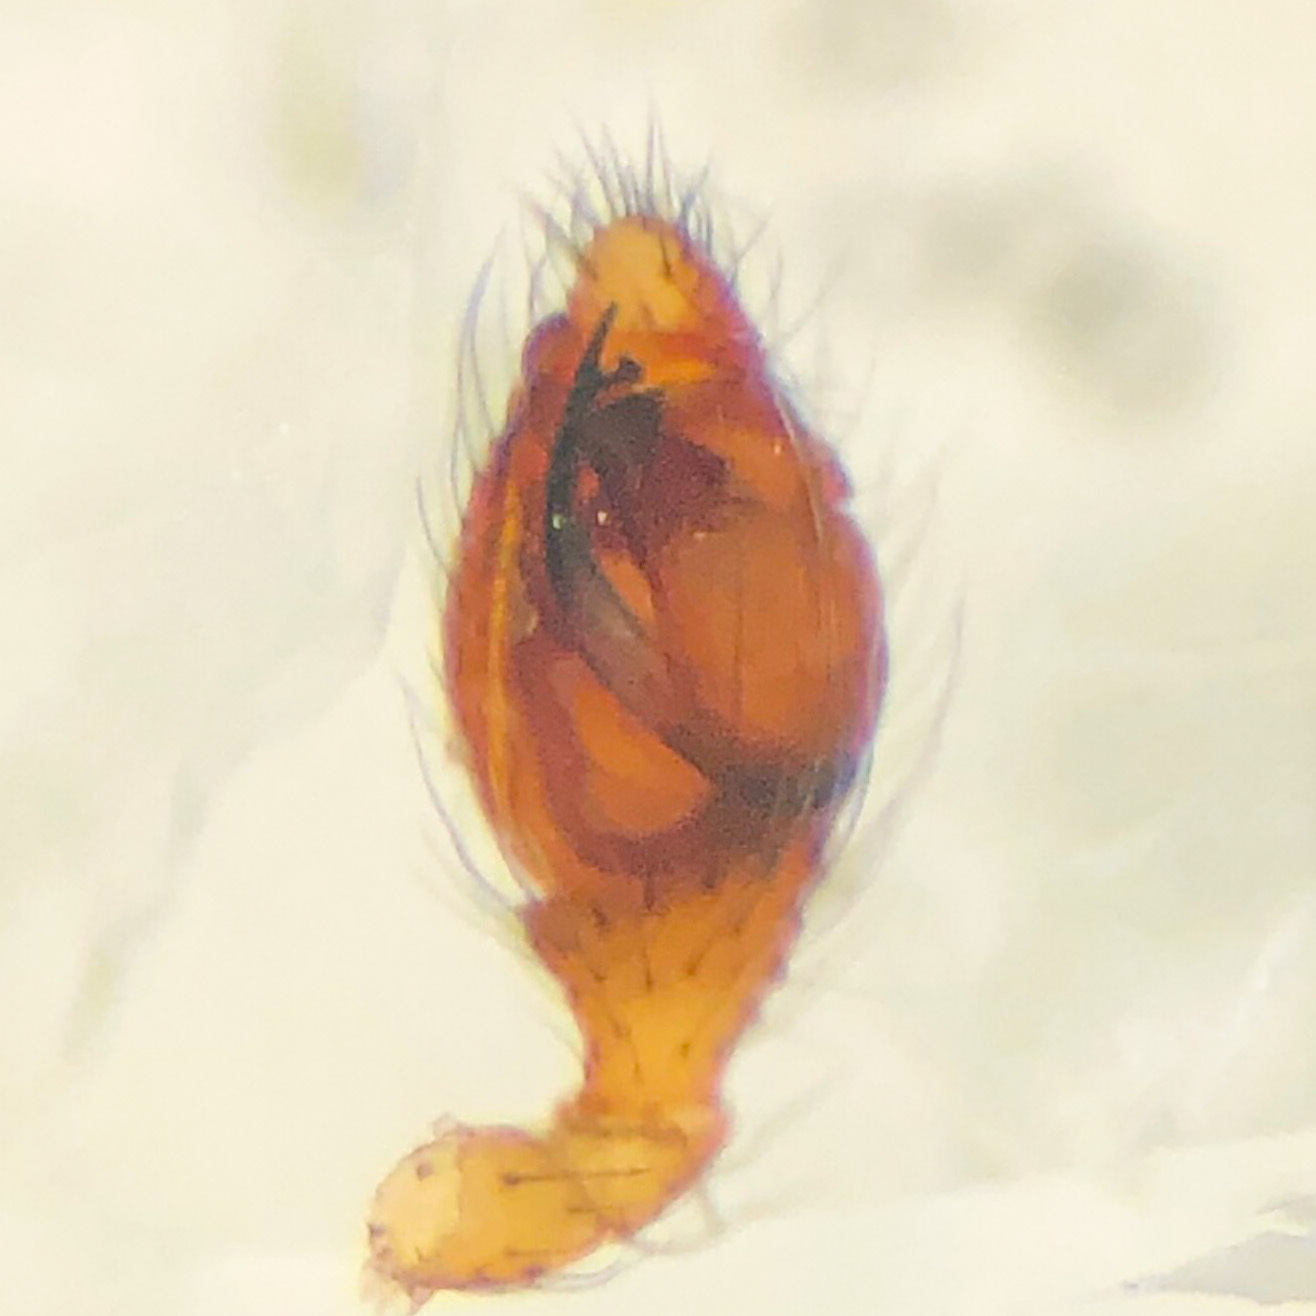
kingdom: Animalia
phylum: Arthropoda
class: Arachnida
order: Araneae
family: Theridiidae
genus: Anelosimus
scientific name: Anelosimus studiosus
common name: Cobweb spiders
